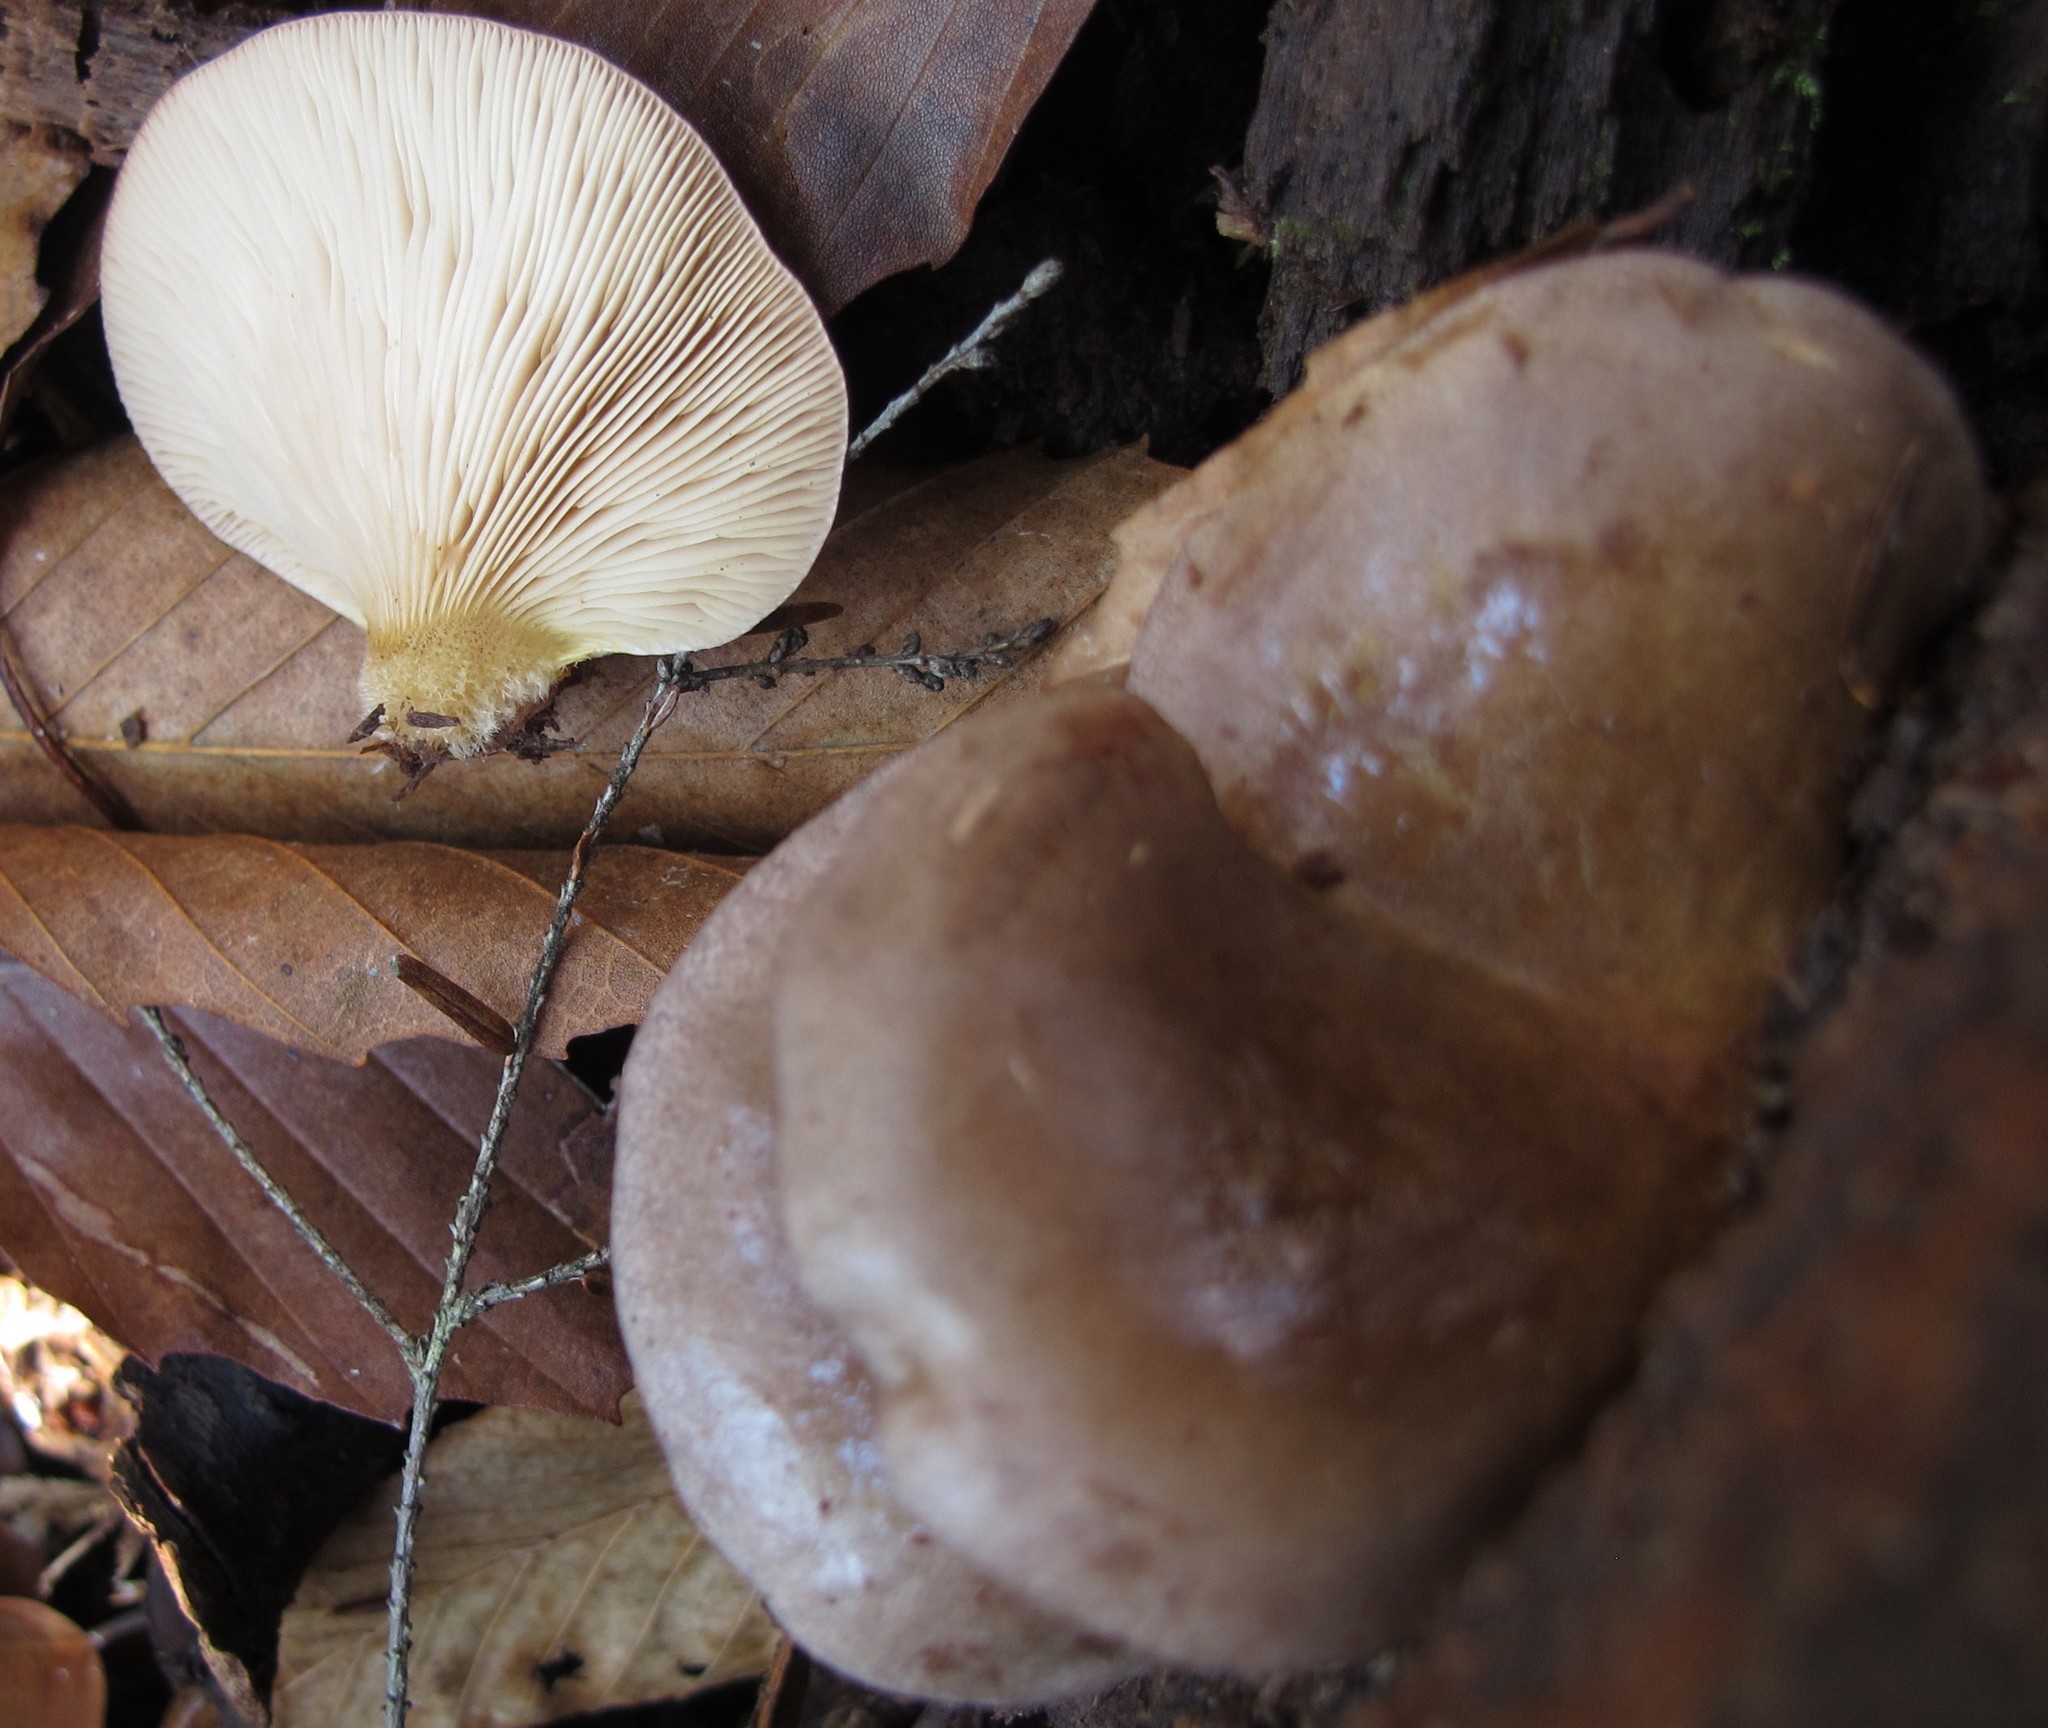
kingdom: Fungi
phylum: Basidiomycota
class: Agaricomycetes
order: Agaricales
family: Sarcomyxaceae
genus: Sarcomyxa
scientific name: Sarcomyxa serotina
